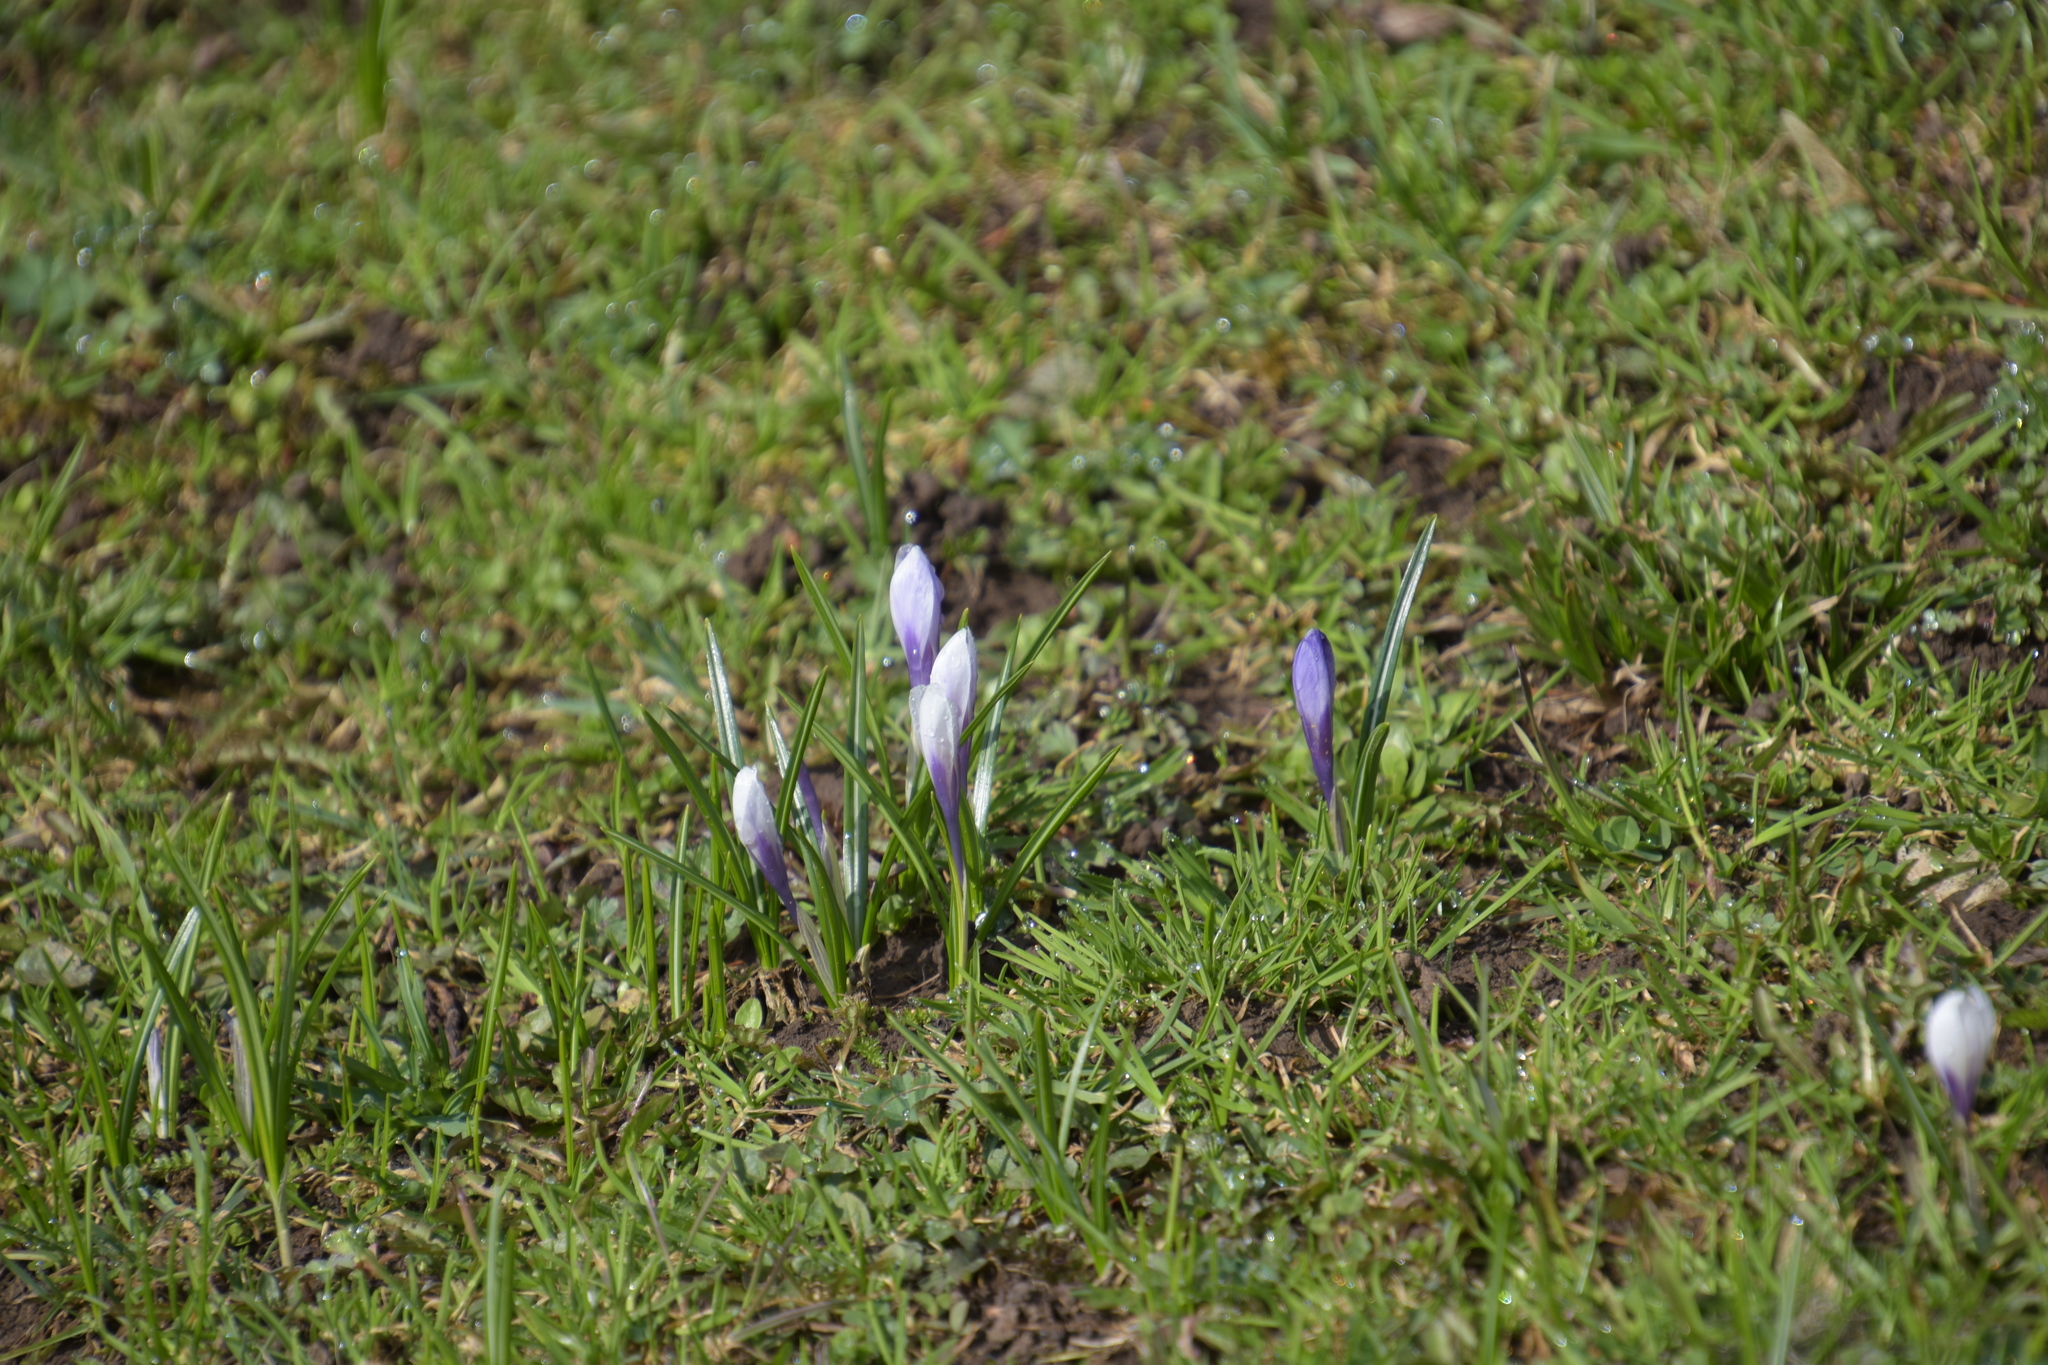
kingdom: Plantae
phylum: Tracheophyta
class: Liliopsida
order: Asparagales
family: Iridaceae
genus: Crocus
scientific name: Crocus vernus
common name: Spring crocus
